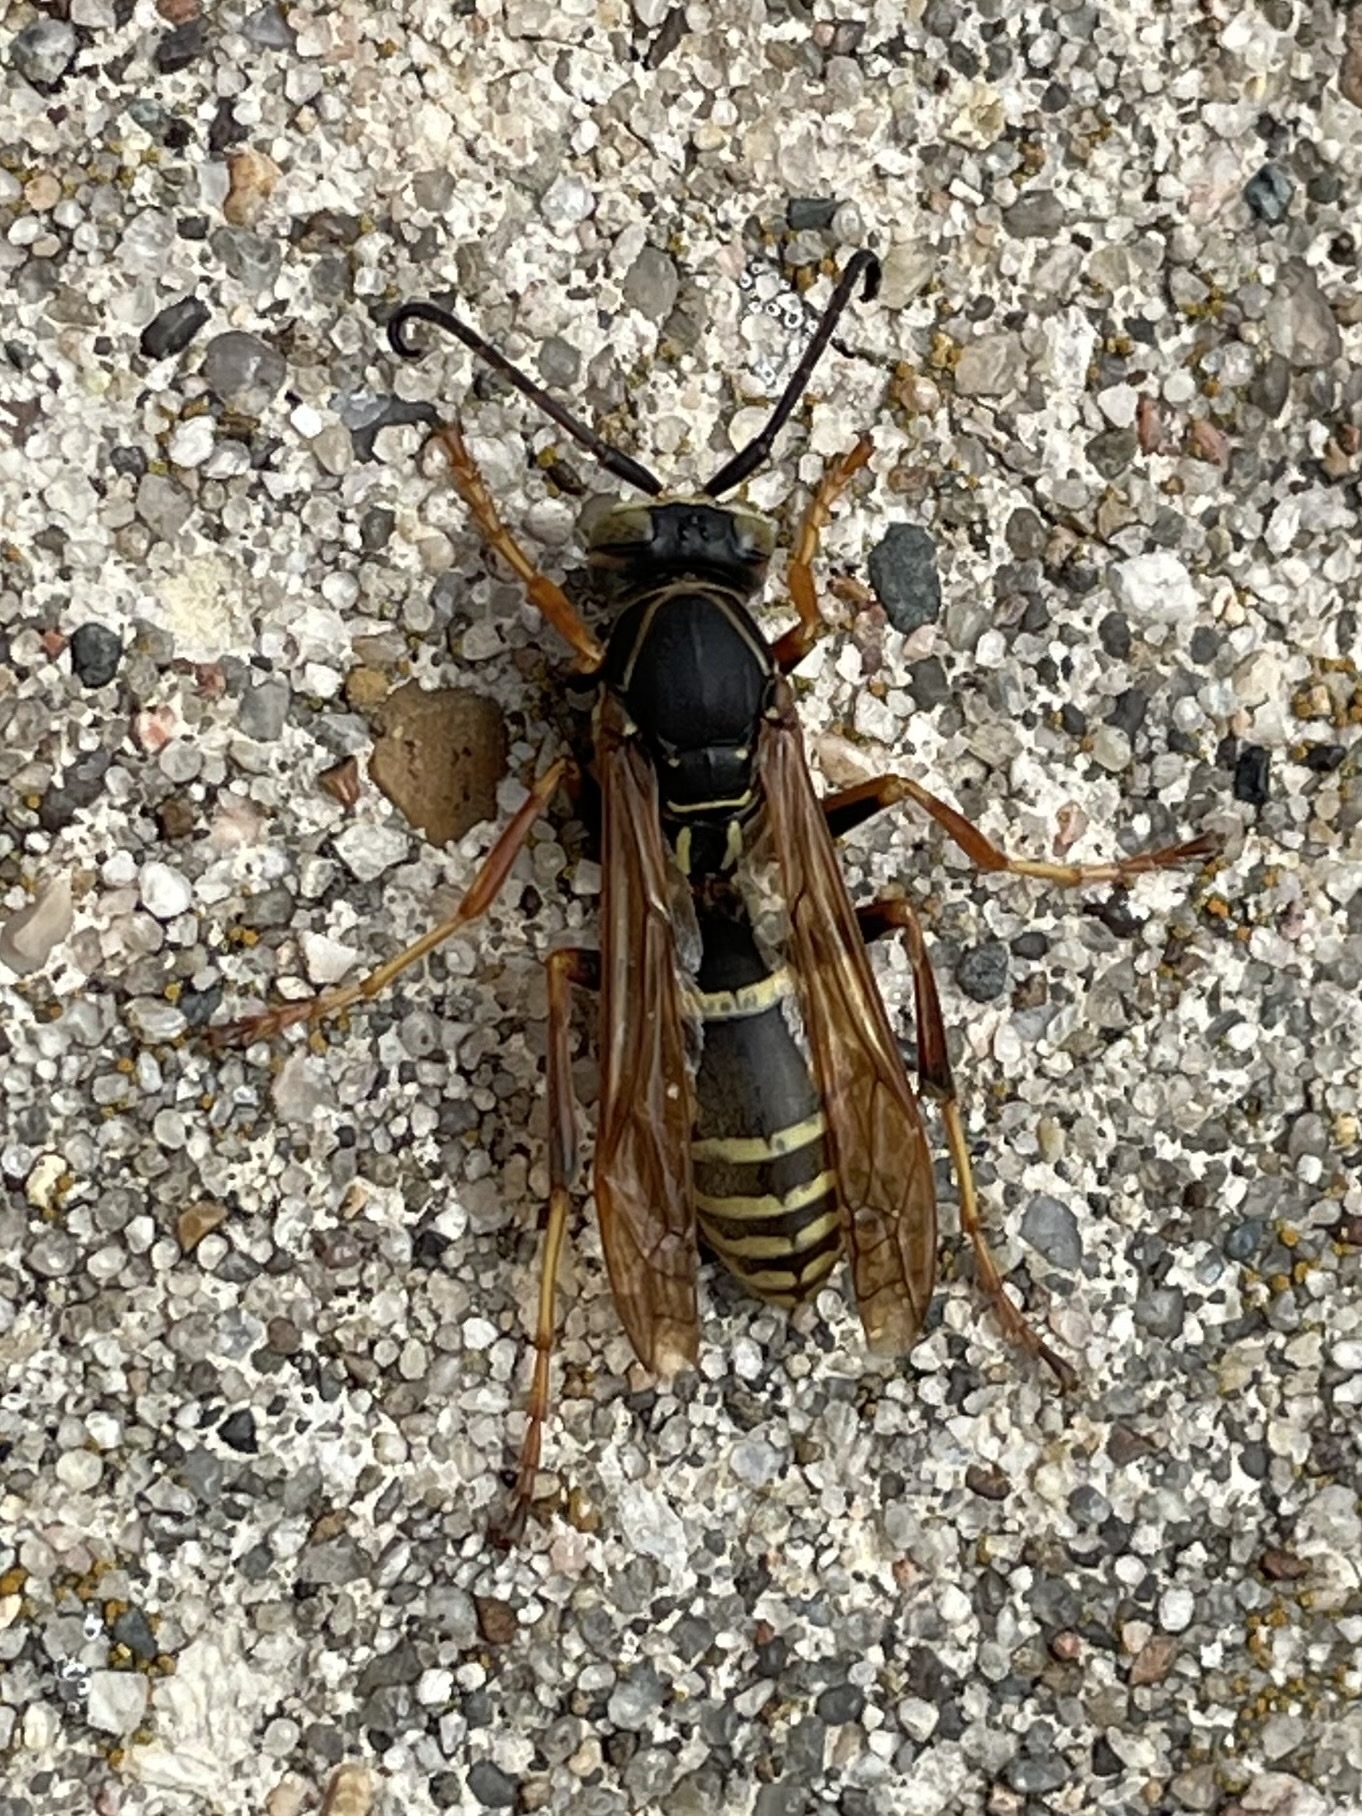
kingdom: Animalia
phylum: Arthropoda
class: Insecta
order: Hymenoptera
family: Eumenidae
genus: Polistes
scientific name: Polistes fuscatus
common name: Dark paper wasp
